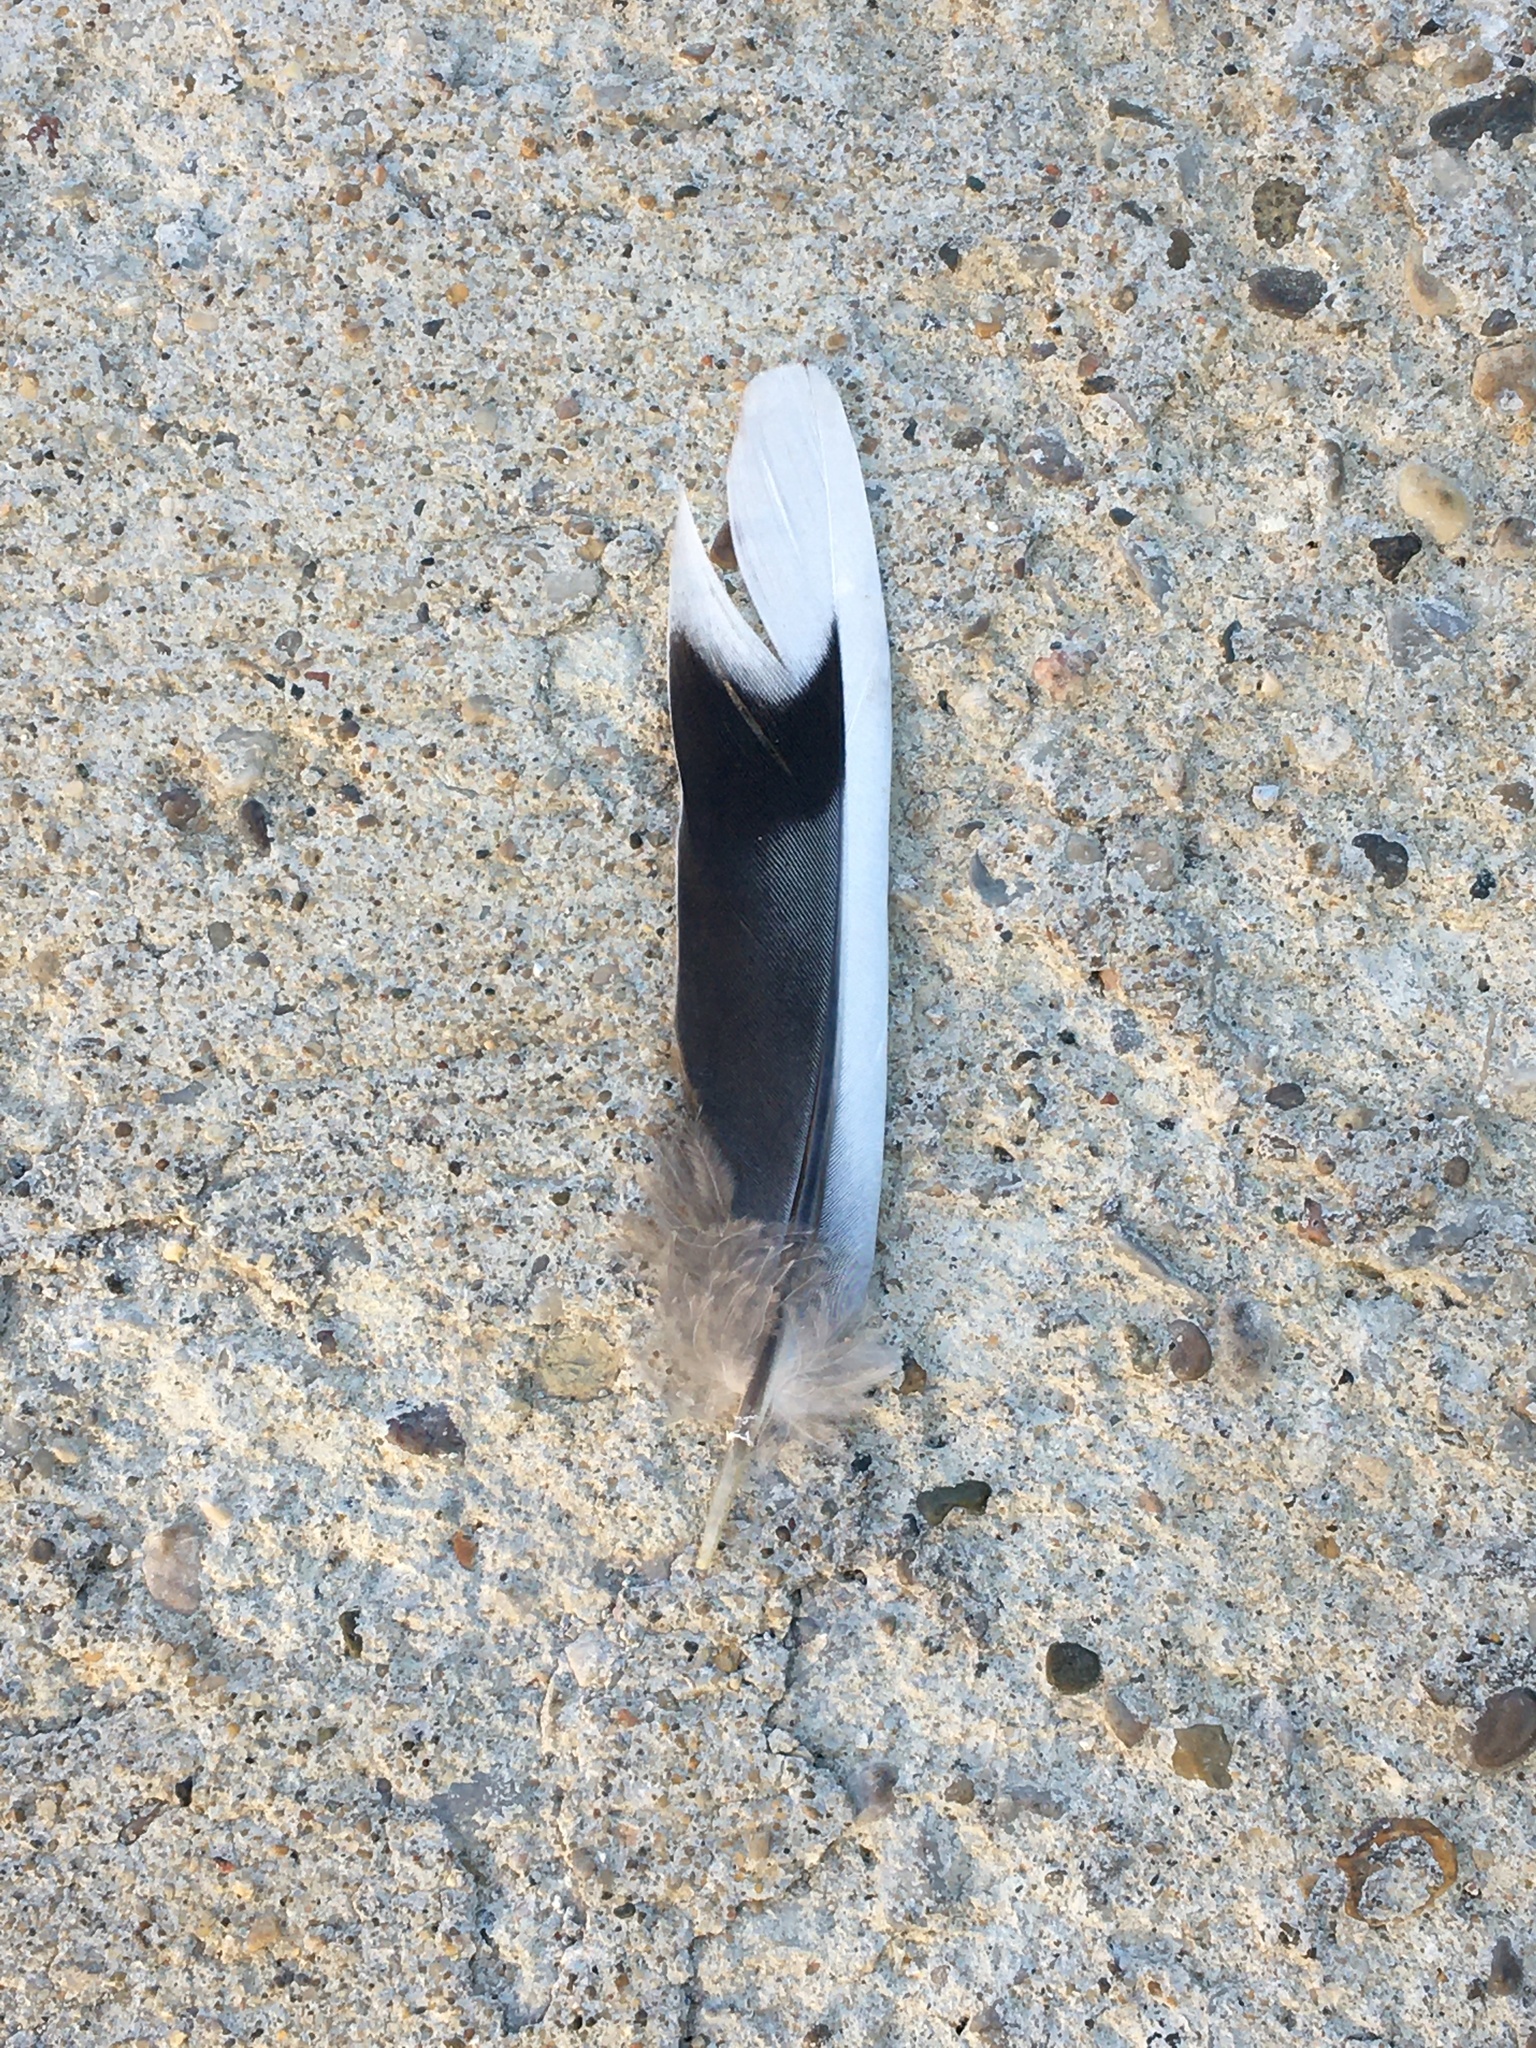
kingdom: Animalia
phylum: Chordata
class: Aves
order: Columbiformes
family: Columbidae
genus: Zenaida
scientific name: Zenaida macroura
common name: Mourning dove
